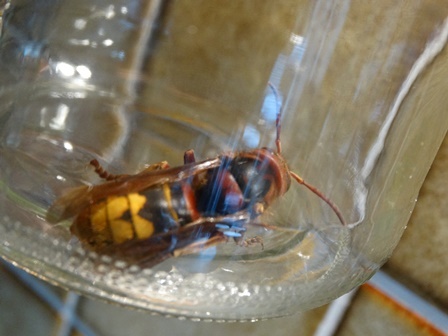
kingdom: Animalia
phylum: Arthropoda
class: Insecta
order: Hymenoptera
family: Vespidae
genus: Vespa
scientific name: Vespa crabro
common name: Hornet
